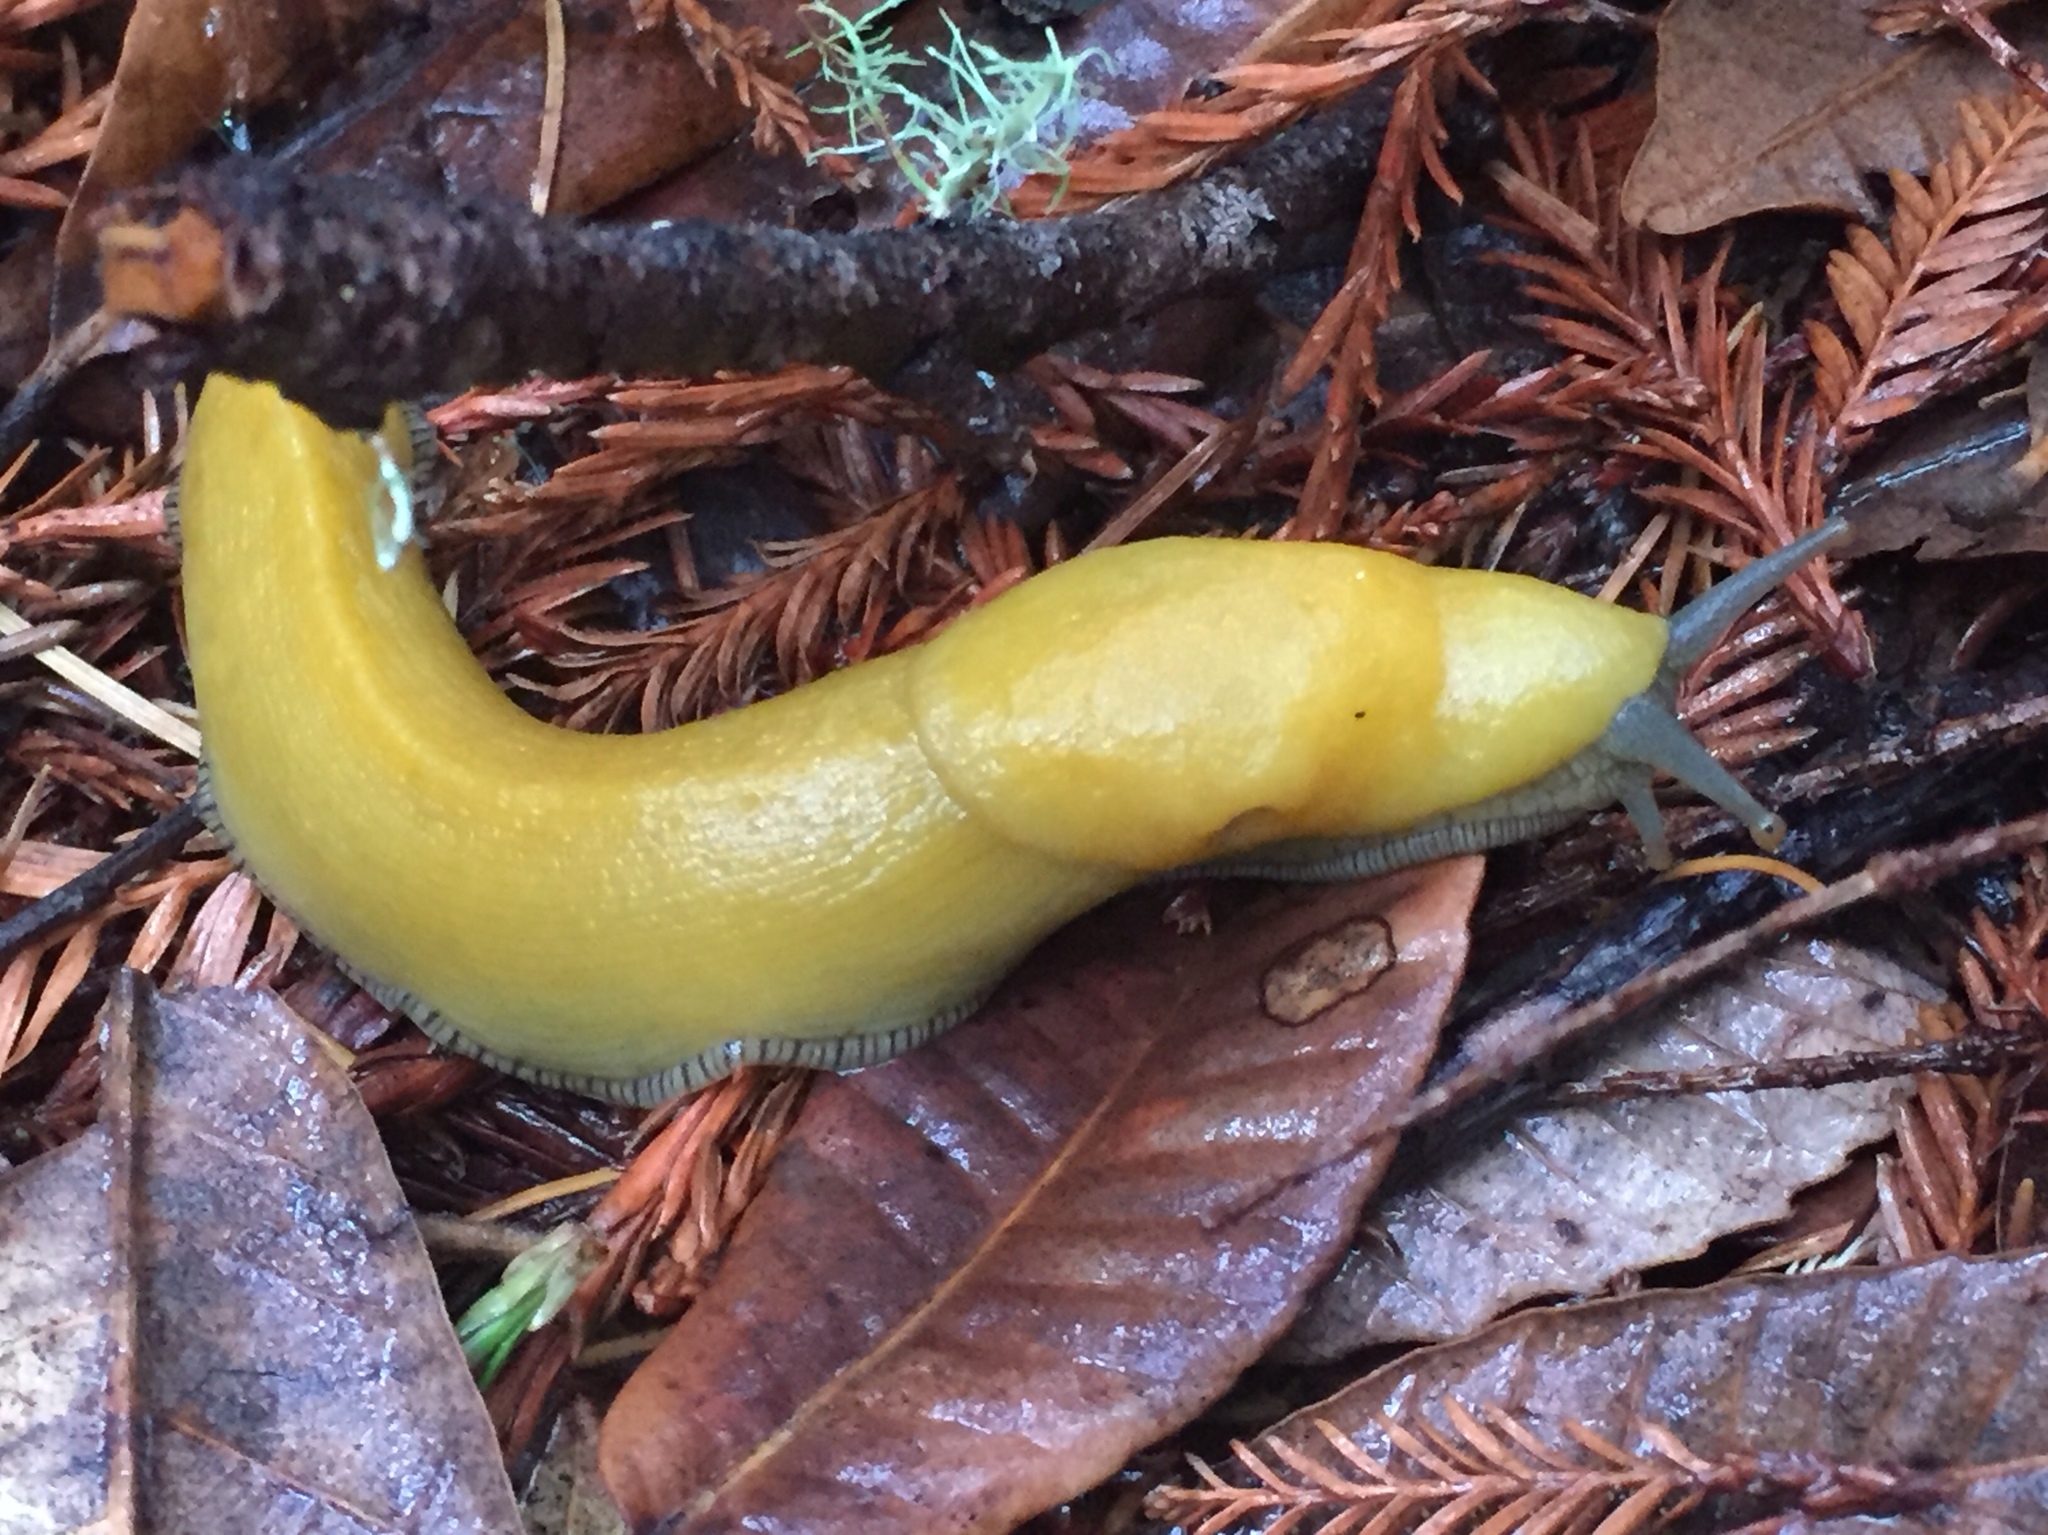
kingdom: Animalia
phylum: Mollusca
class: Gastropoda
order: Stylommatophora
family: Ariolimacidae
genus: Ariolimax
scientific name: Ariolimax californicus
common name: California banana slug
